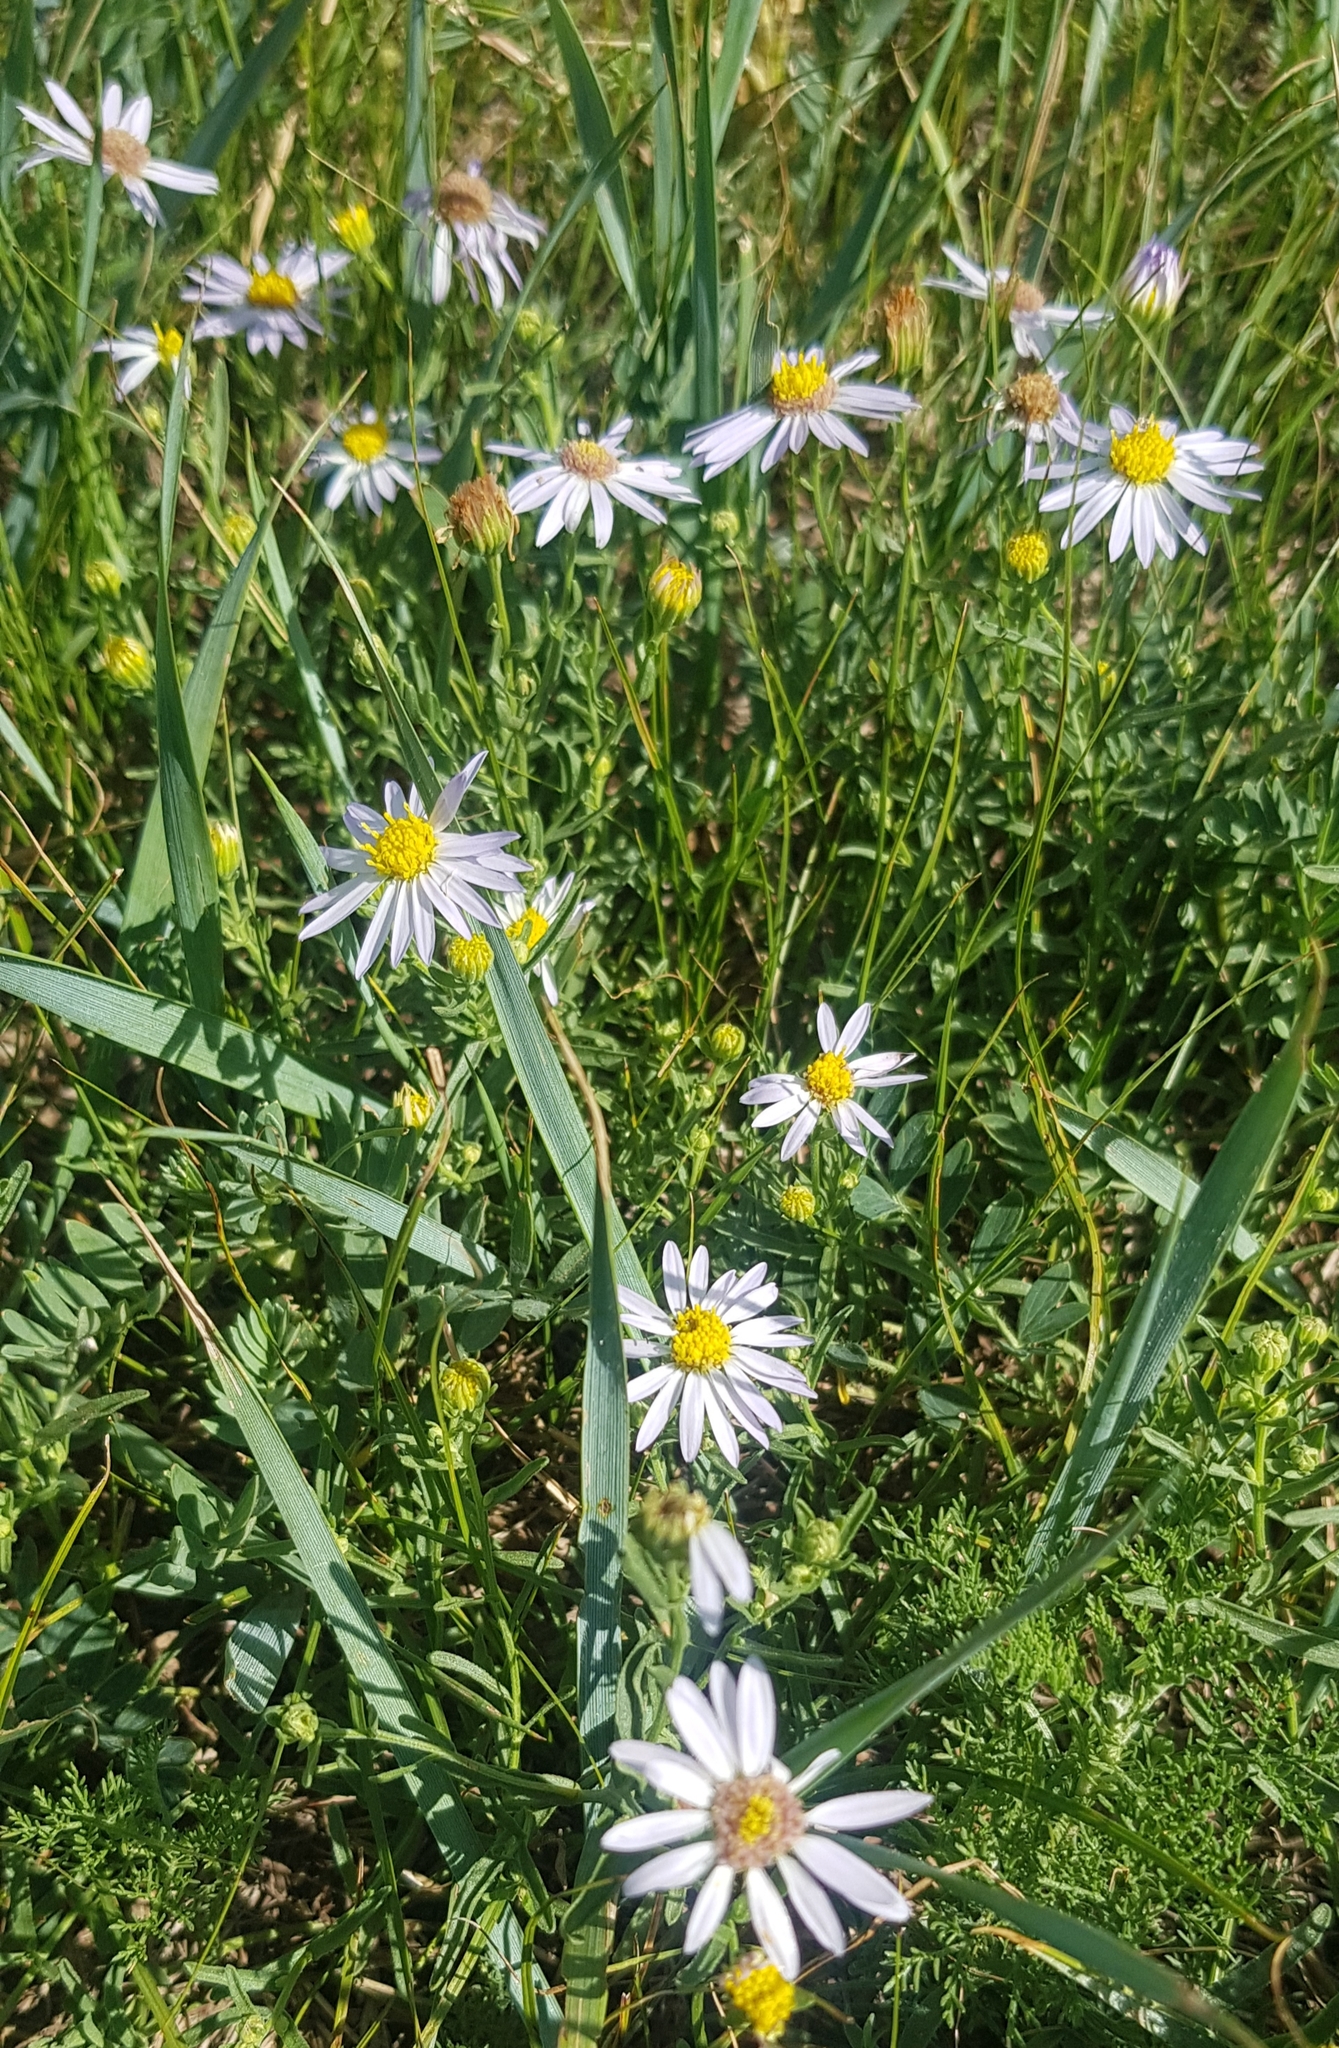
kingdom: Plantae
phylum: Tracheophyta
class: Magnoliopsida
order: Asterales
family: Asteraceae
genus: Heteropappus
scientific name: Heteropappus altaicus
